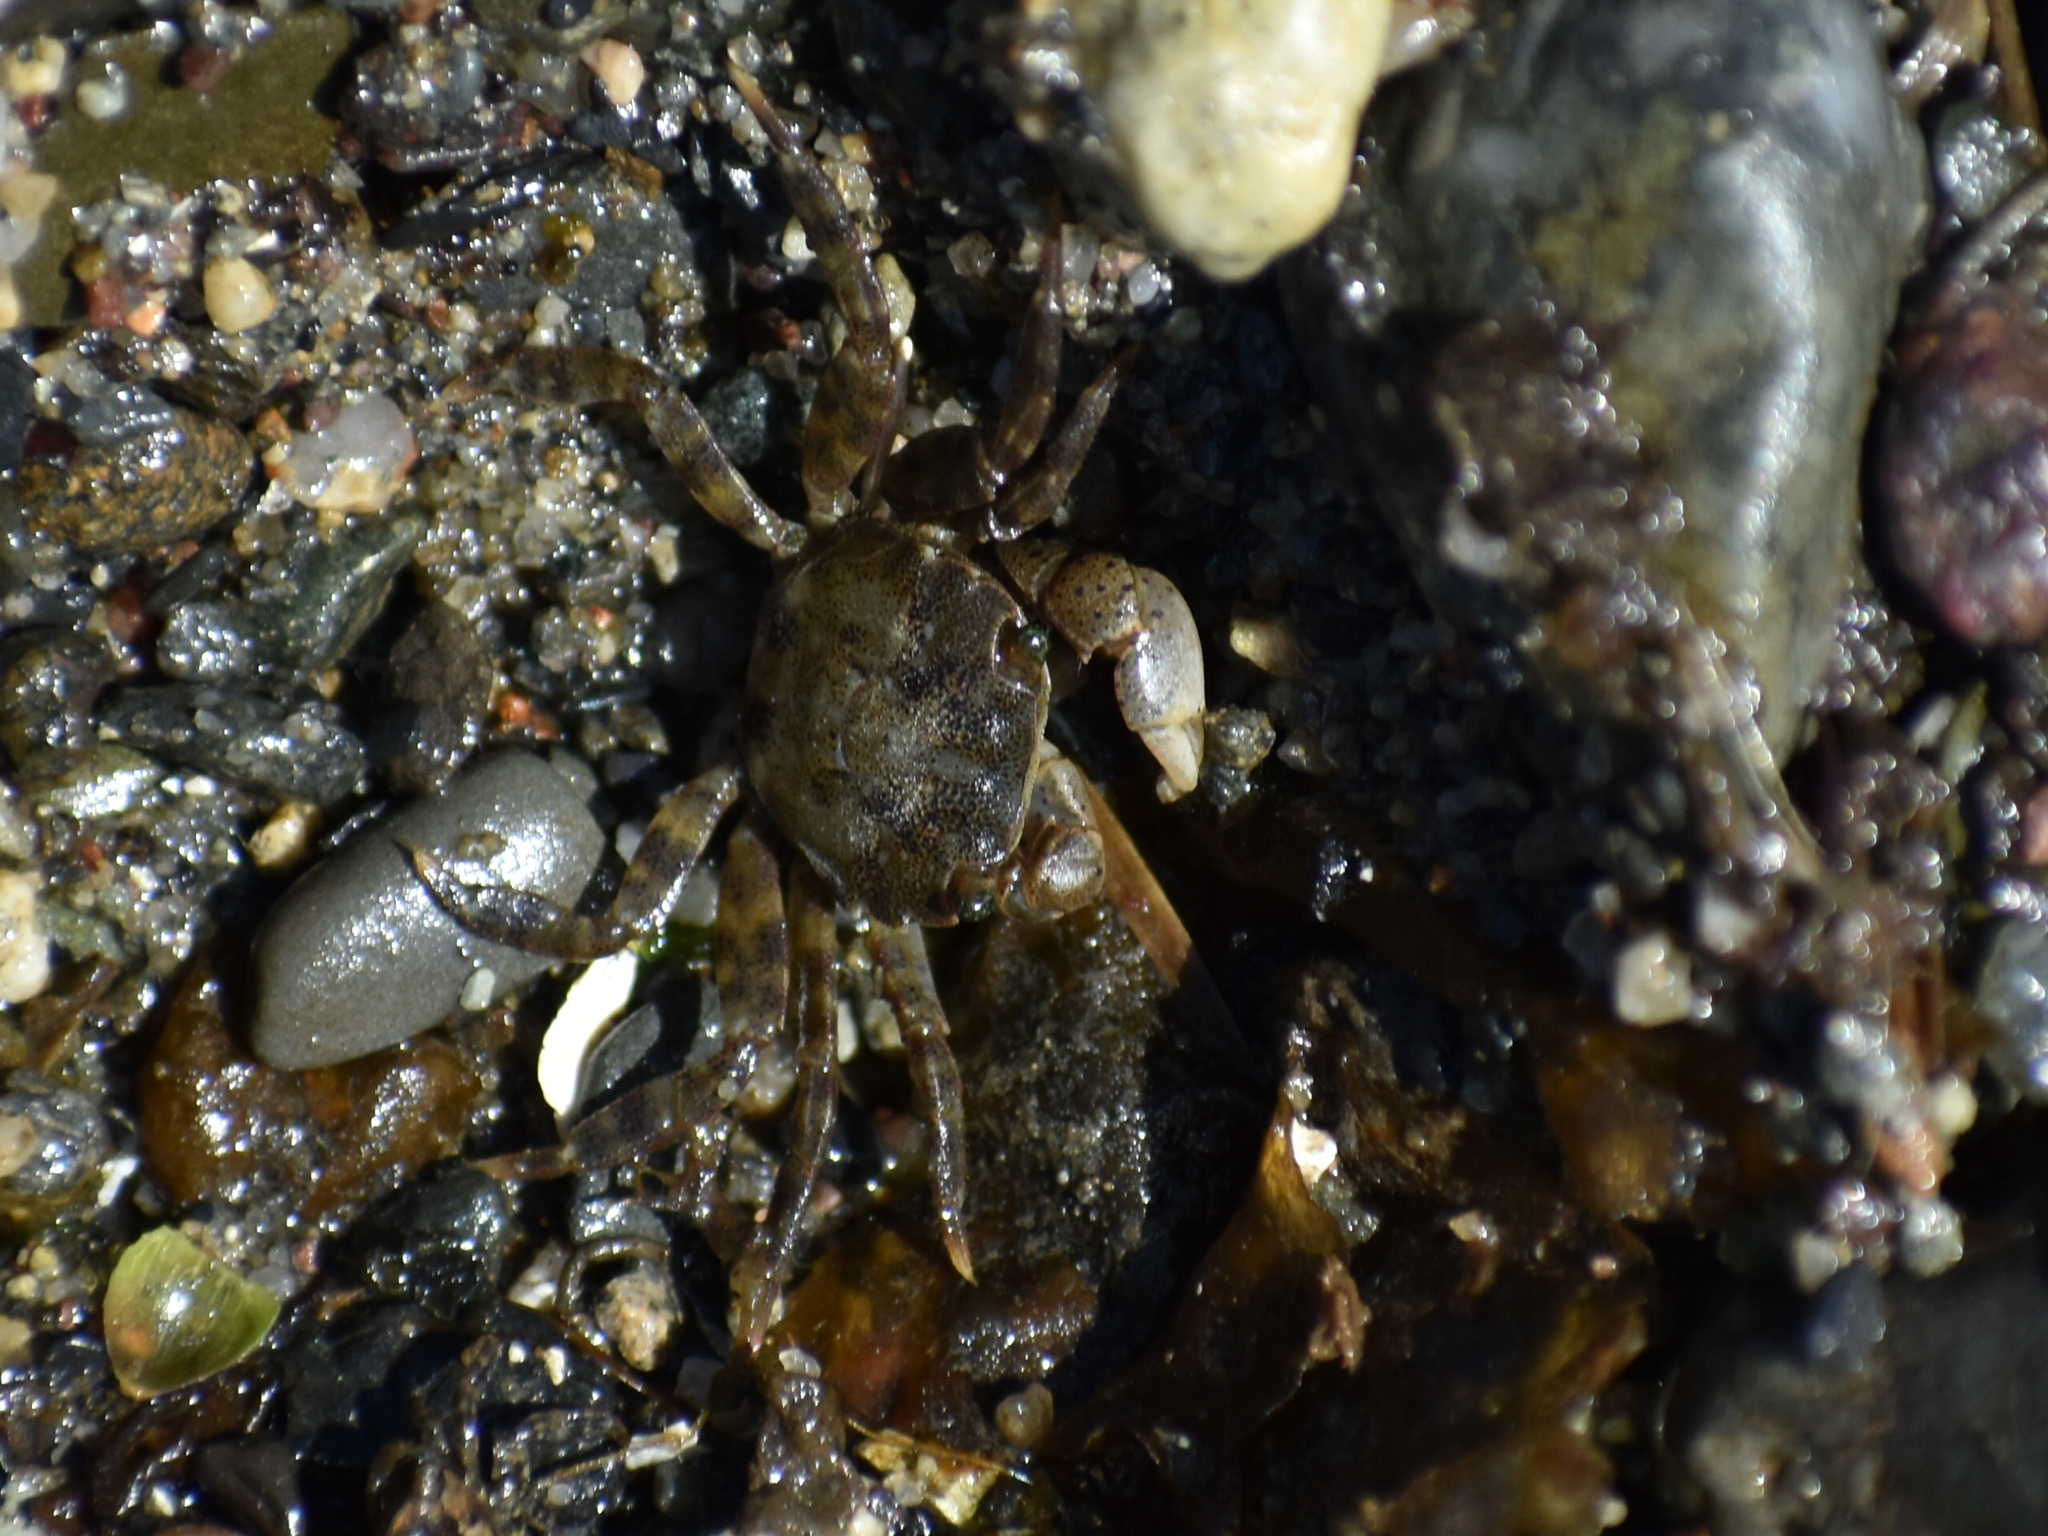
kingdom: Animalia
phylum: Arthropoda
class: Malacostraca
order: Decapoda
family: Varunidae
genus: Hemigrapsus
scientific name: Hemigrapsus sanguineus
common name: Asian shore crab
